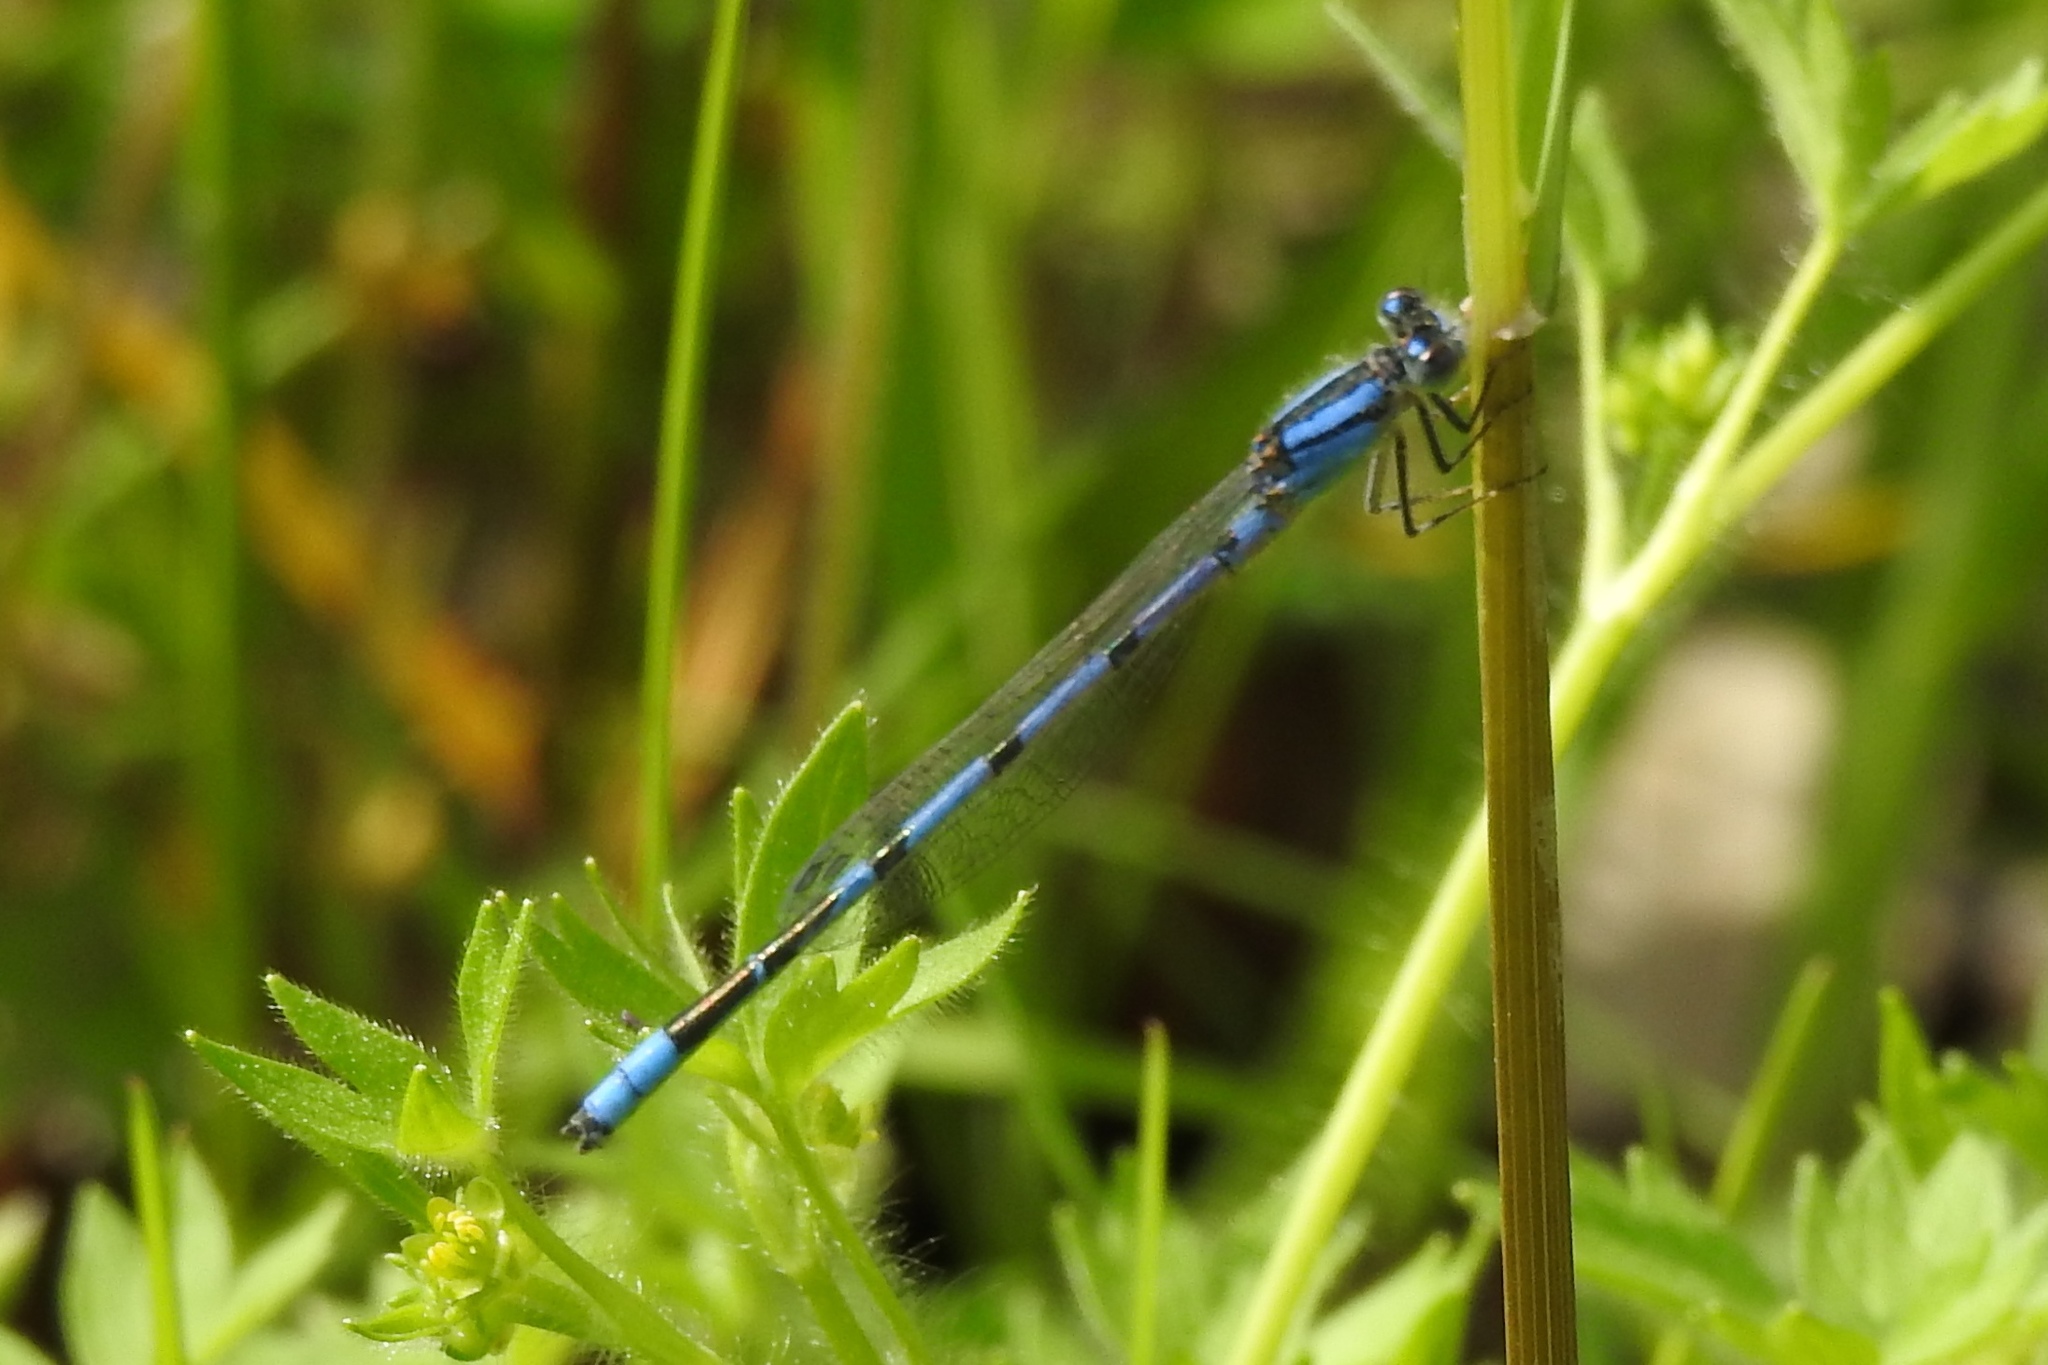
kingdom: Animalia
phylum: Arthropoda
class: Insecta
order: Odonata
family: Coenagrionidae
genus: Enallagma
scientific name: Enallagma civile
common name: Damselfly
